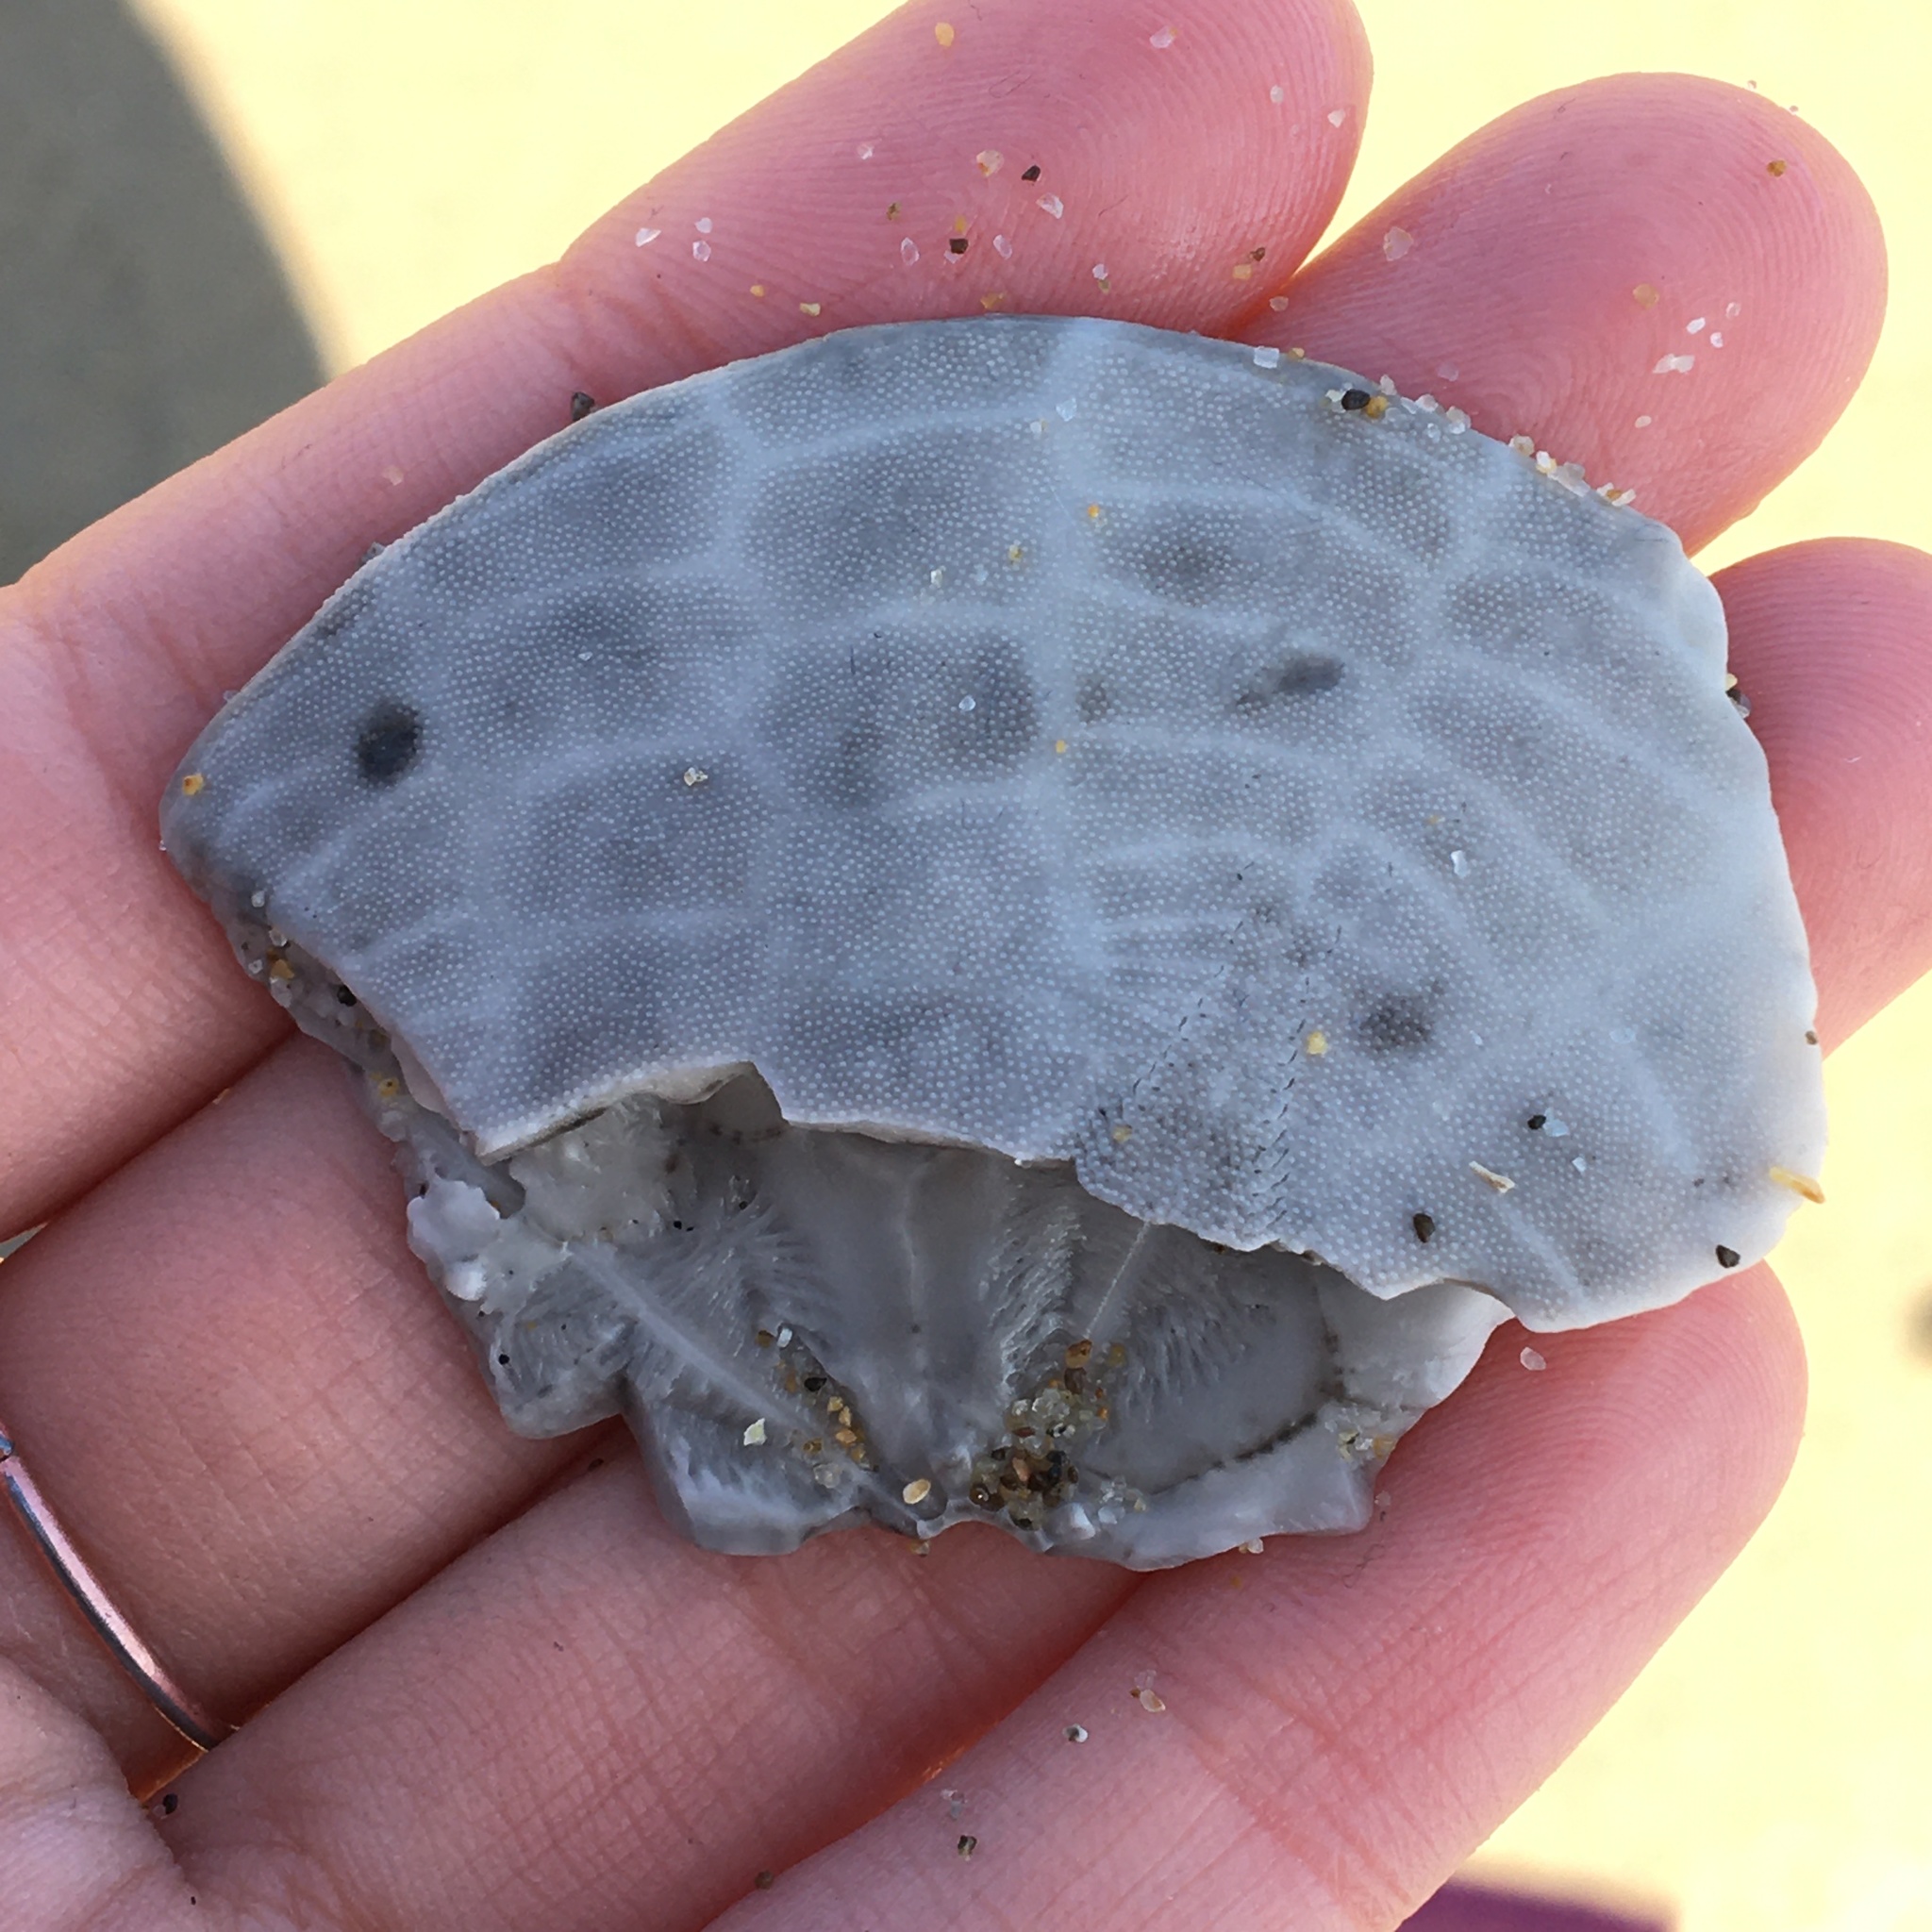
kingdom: Animalia
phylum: Echinodermata
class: Echinoidea
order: Echinolampadacea
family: Dendrasteridae
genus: Dendraster
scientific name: Dendraster excentricus
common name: Eccentric sand dollar sea urchin
